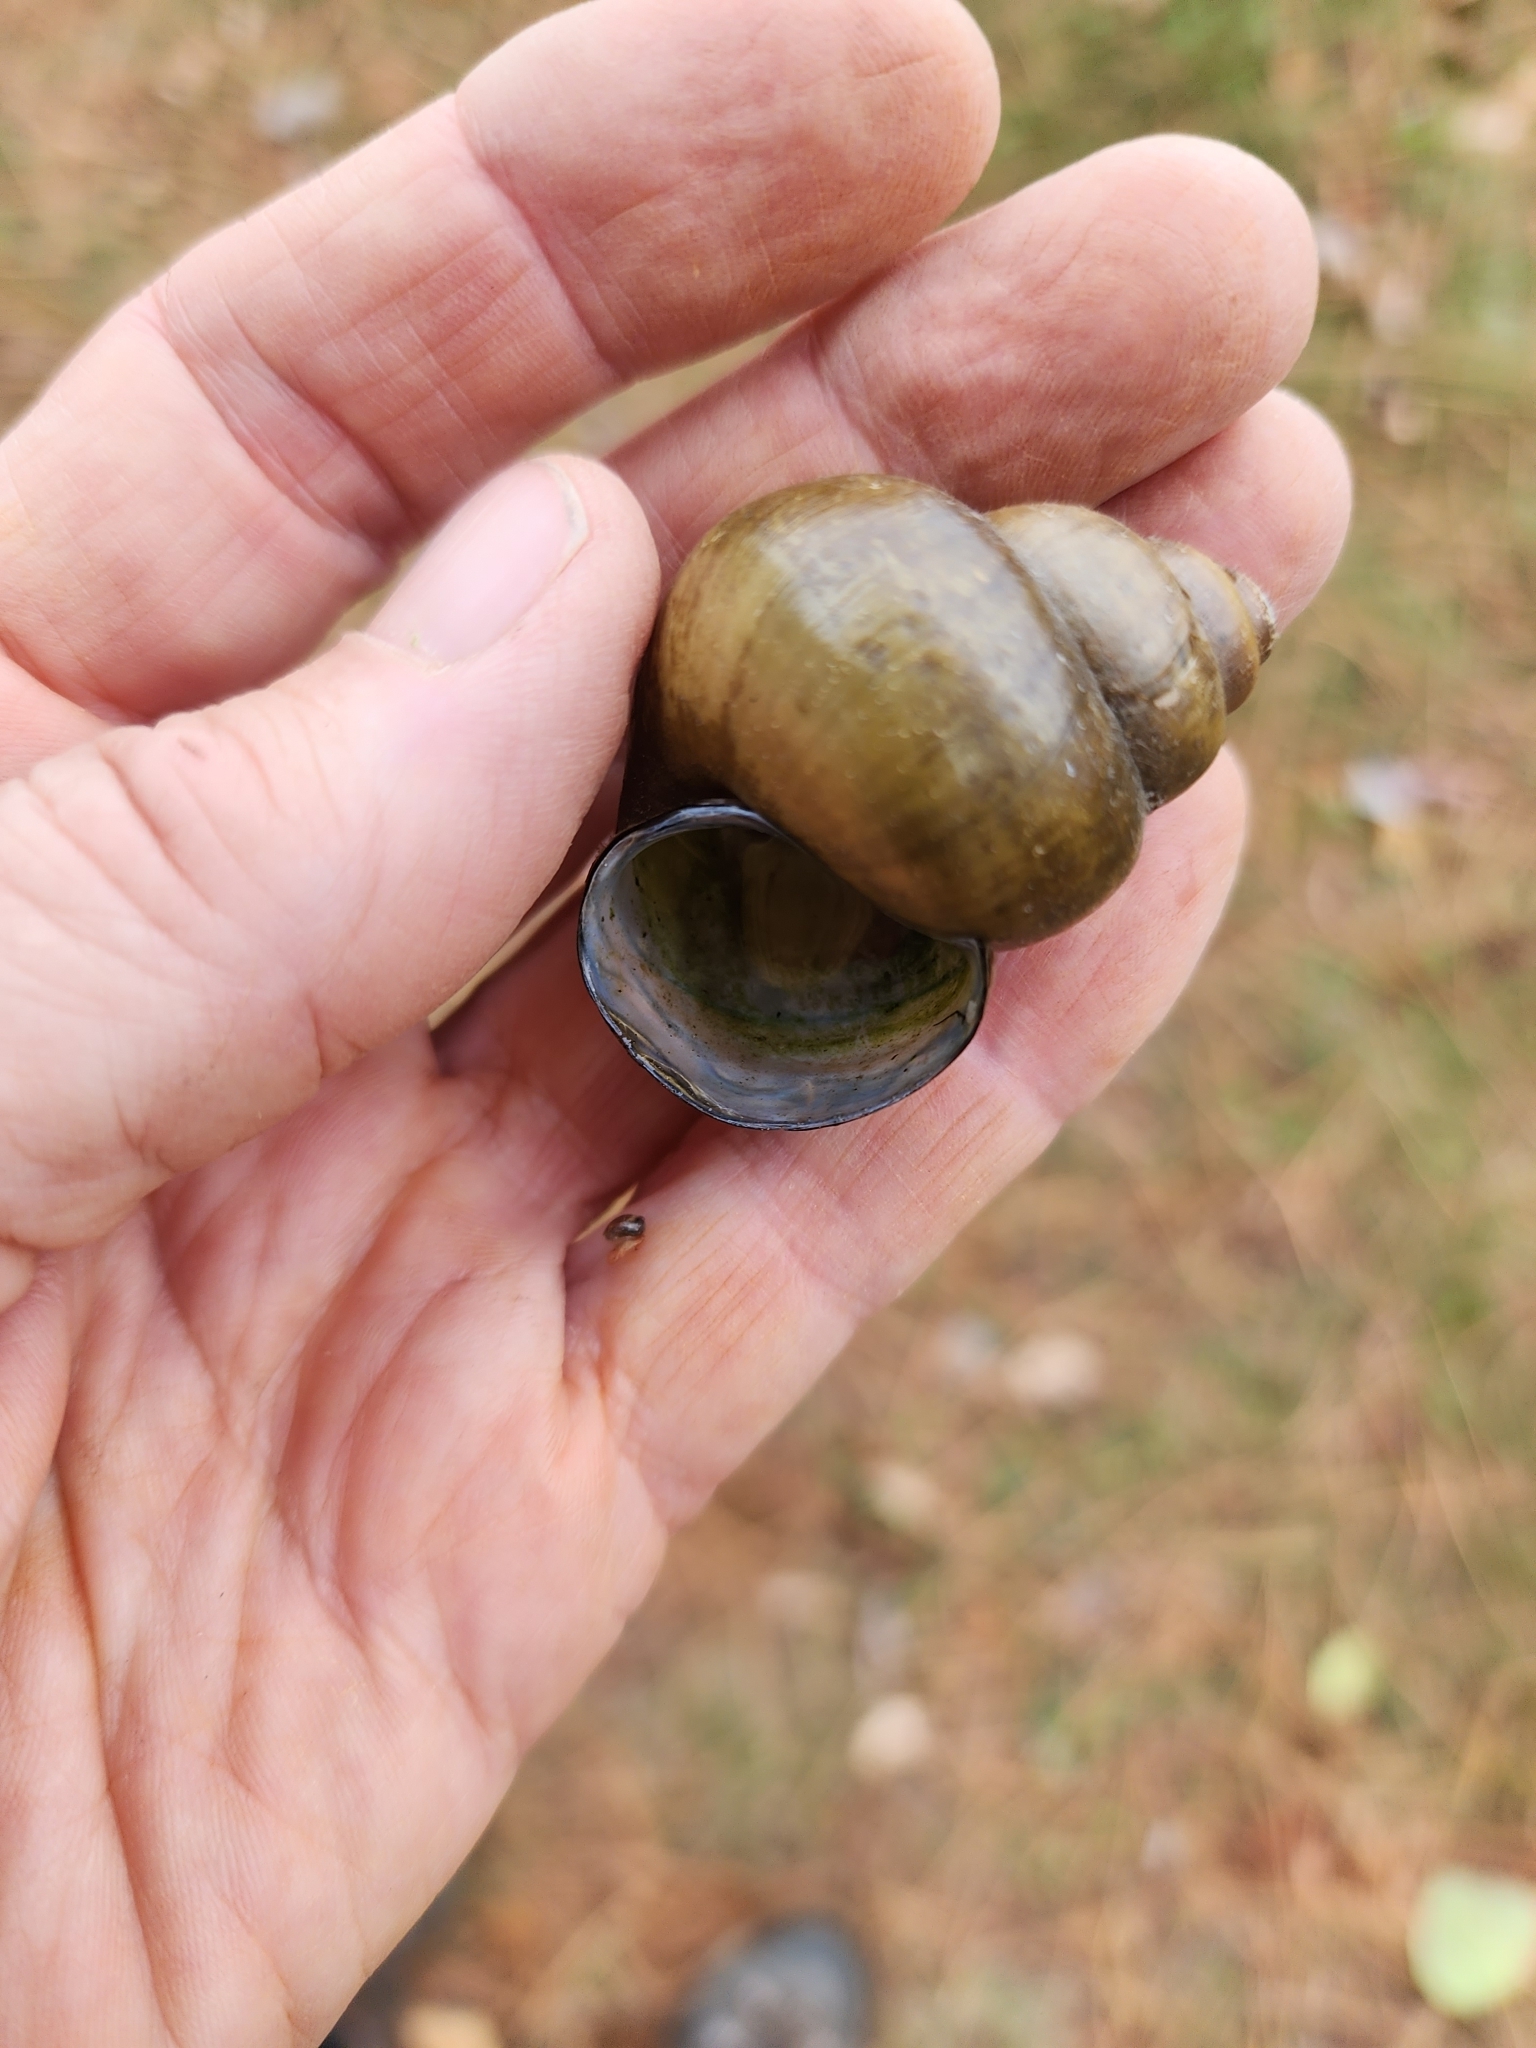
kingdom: Animalia
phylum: Mollusca
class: Gastropoda
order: Architaenioglossa
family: Viviparidae
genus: Cipangopaludina
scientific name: Cipangopaludina chinensis
